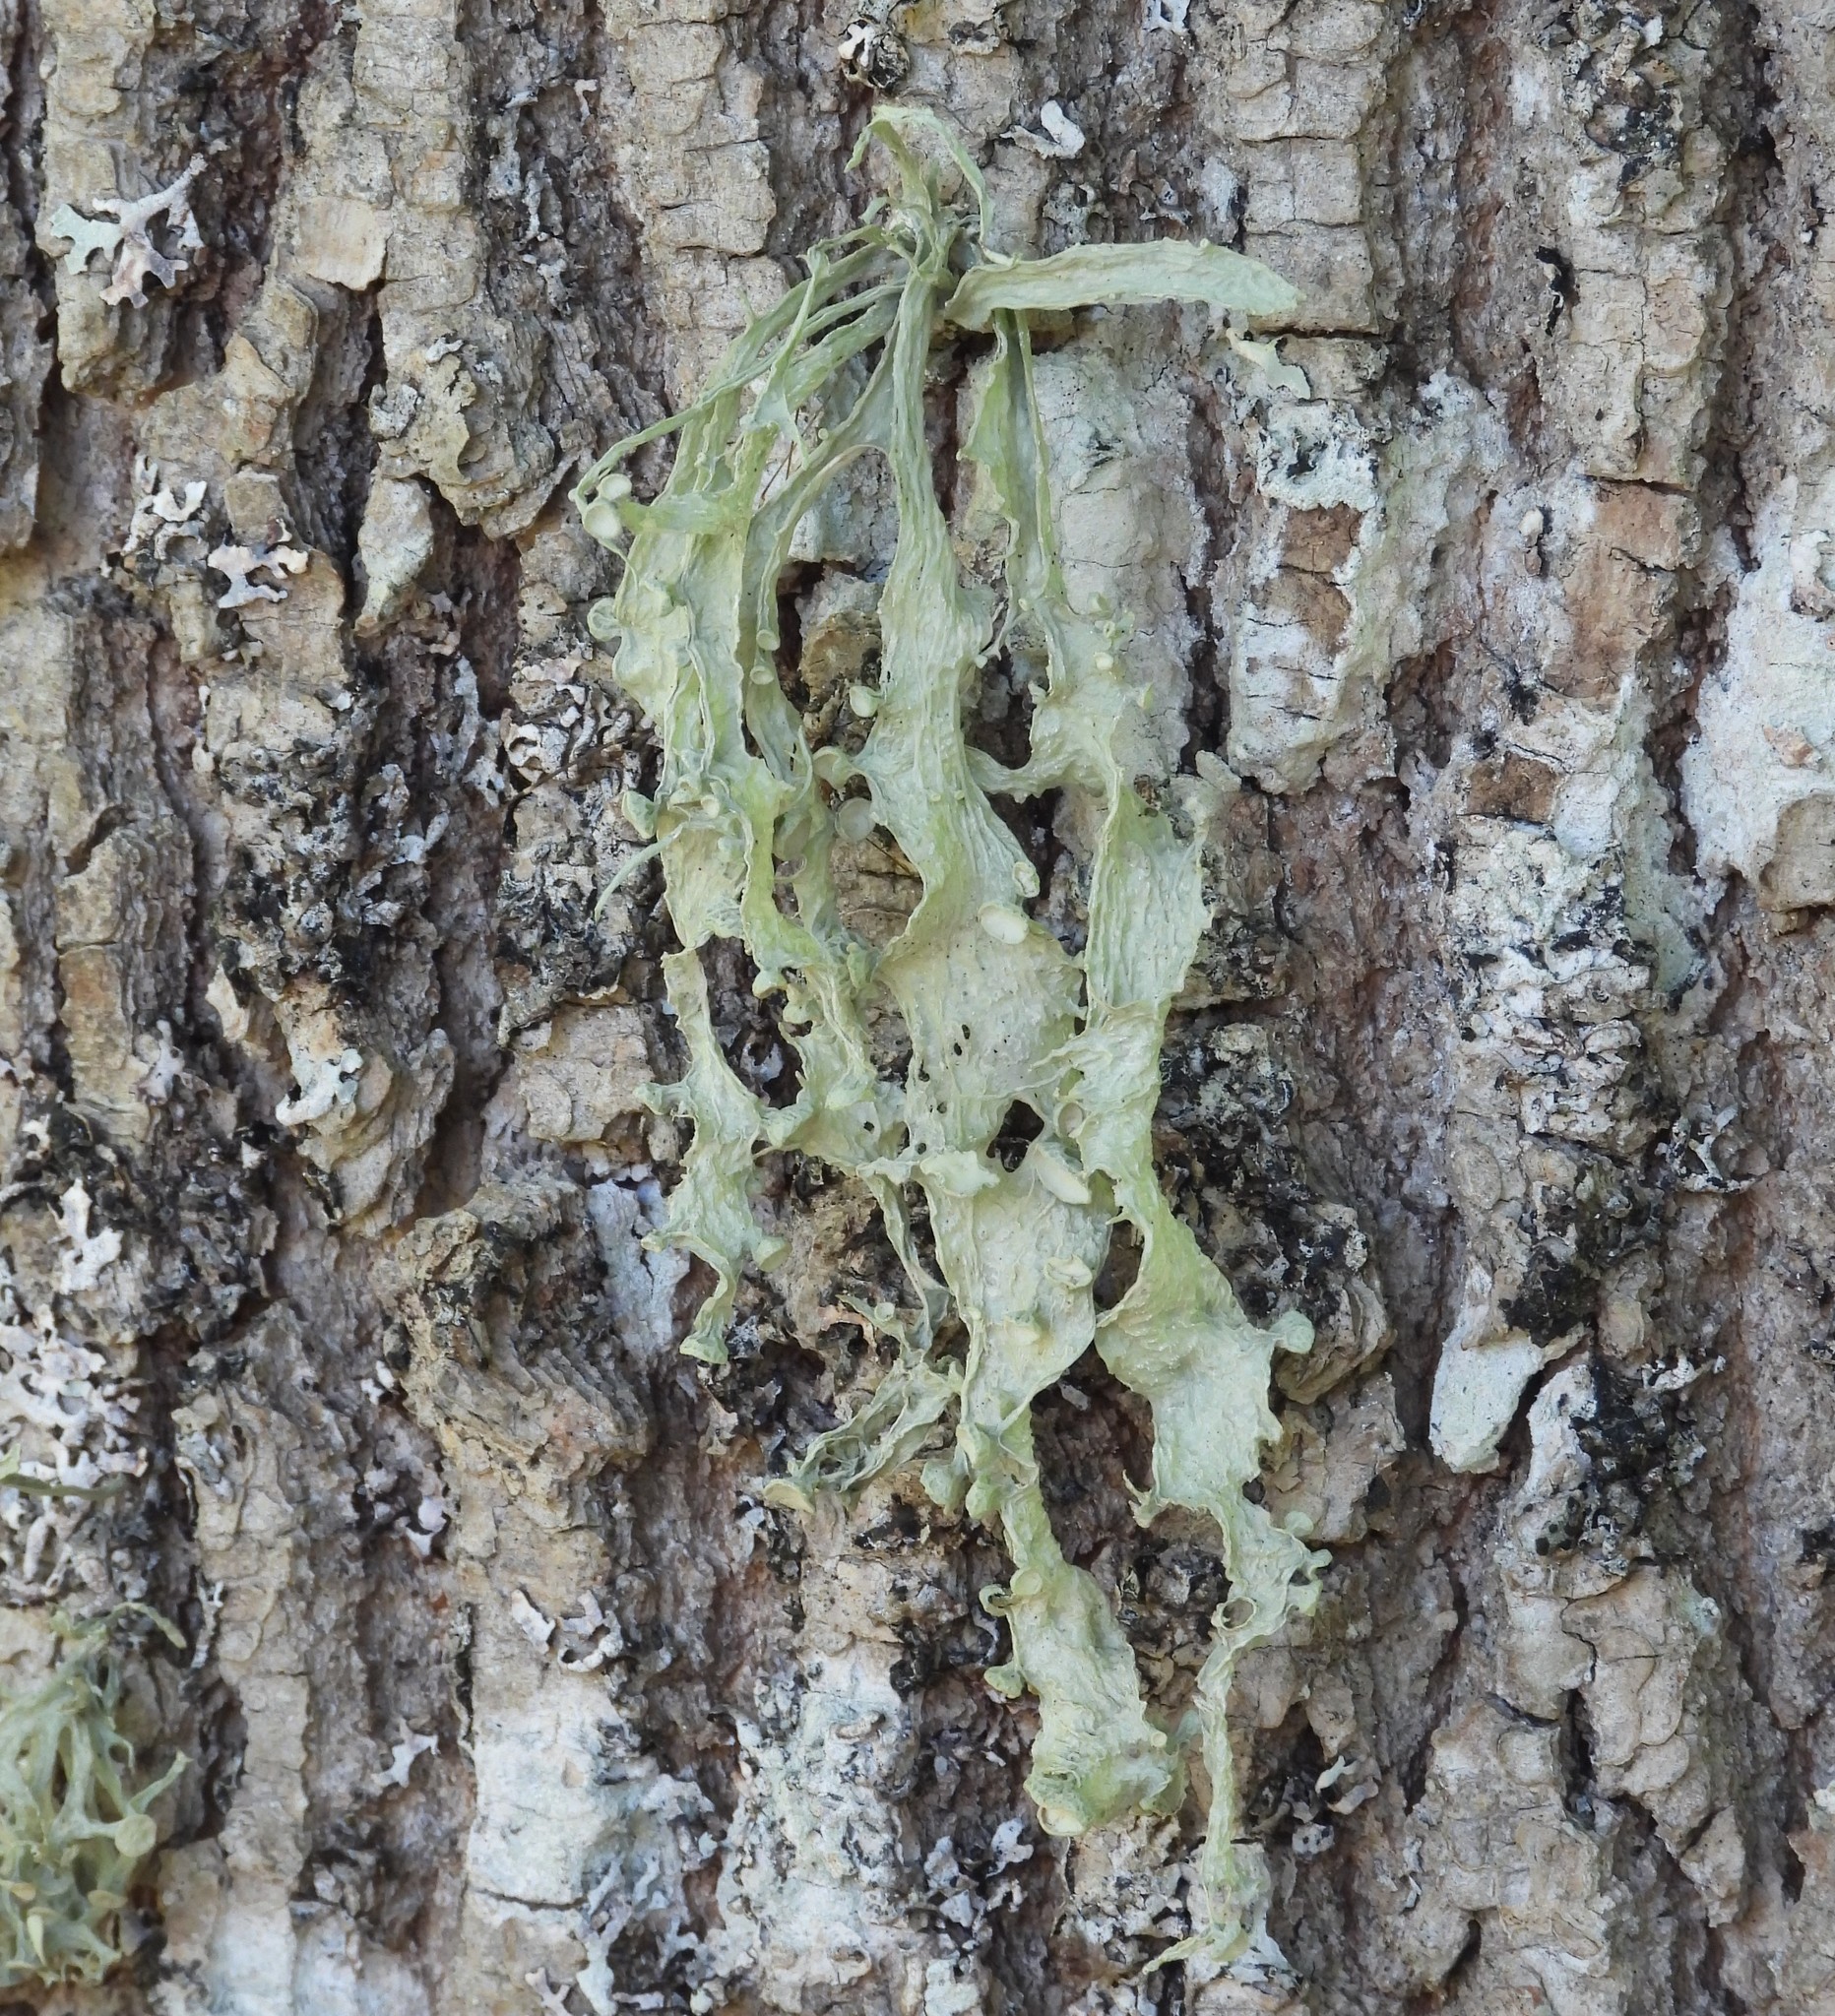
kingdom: Fungi
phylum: Ascomycota
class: Lecanoromycetes
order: Lecanorales
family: Ramalinaceae
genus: Ramalina
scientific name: Ramalina fraxinea
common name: Cartilage lichen
